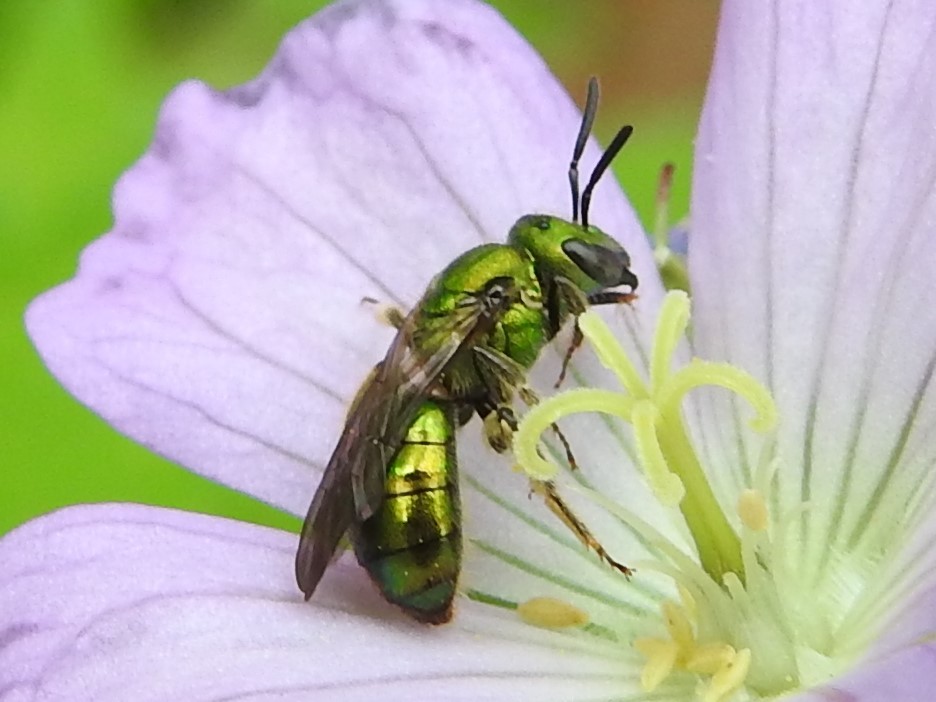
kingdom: Animalia
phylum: Arthropoda
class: Insecta
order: Hymenoptera
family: Halictidae
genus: Augochlora
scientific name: Augochlora pura
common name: Pure green sweat bee
